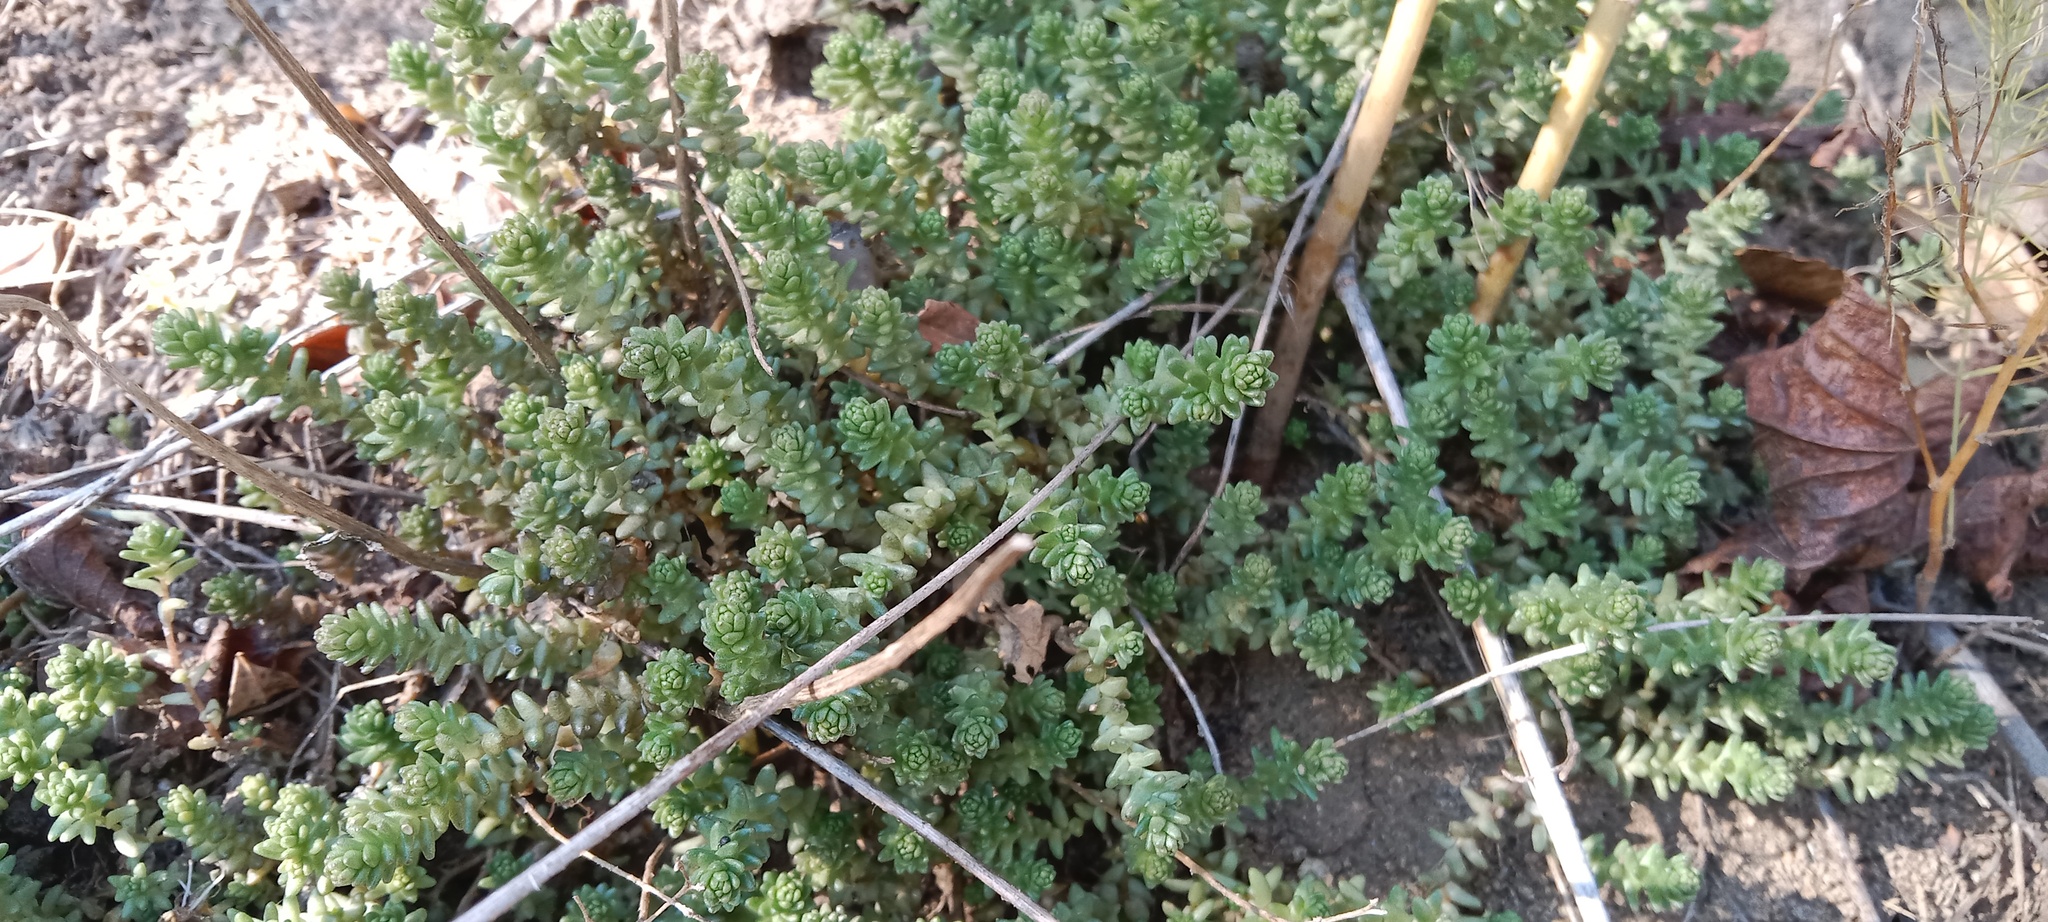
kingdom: Plantae
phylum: Tracheophyta
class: Magnoliopsida
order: Saxifragales
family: Crassulaceae
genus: Sedum
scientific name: Sedum acre
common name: Biting stonecrop
